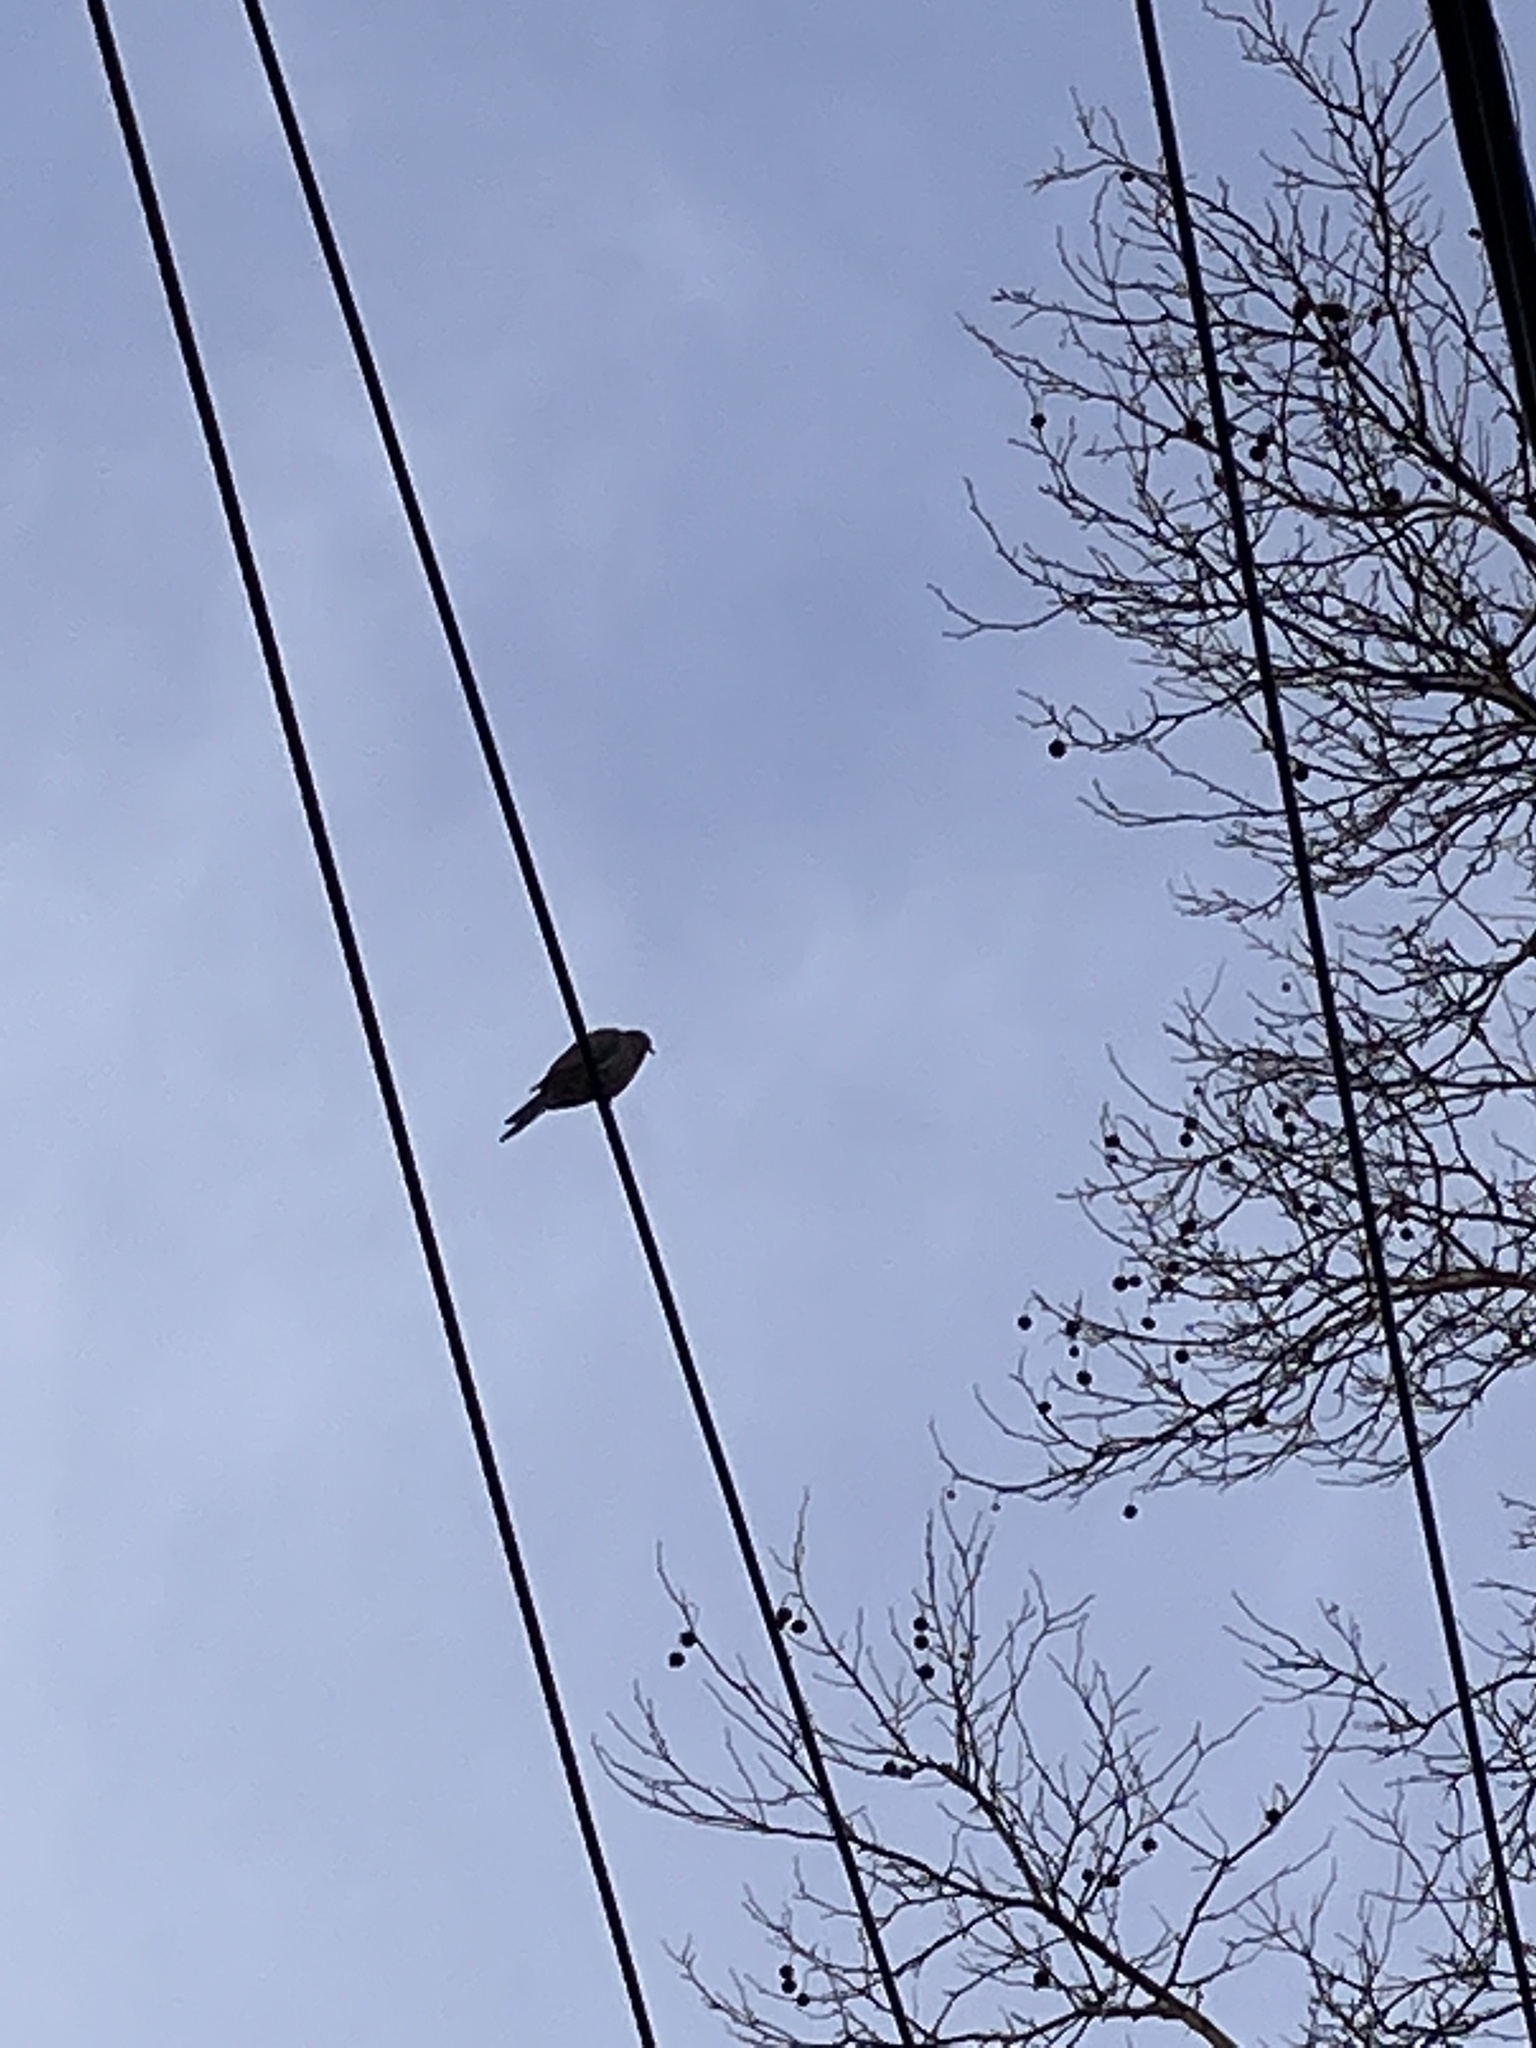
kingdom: Animalia
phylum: Chordata
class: Aves
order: Columbiformes
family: Columbidae
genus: Zenaida
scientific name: Zenaida macroura
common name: Mourning dove
